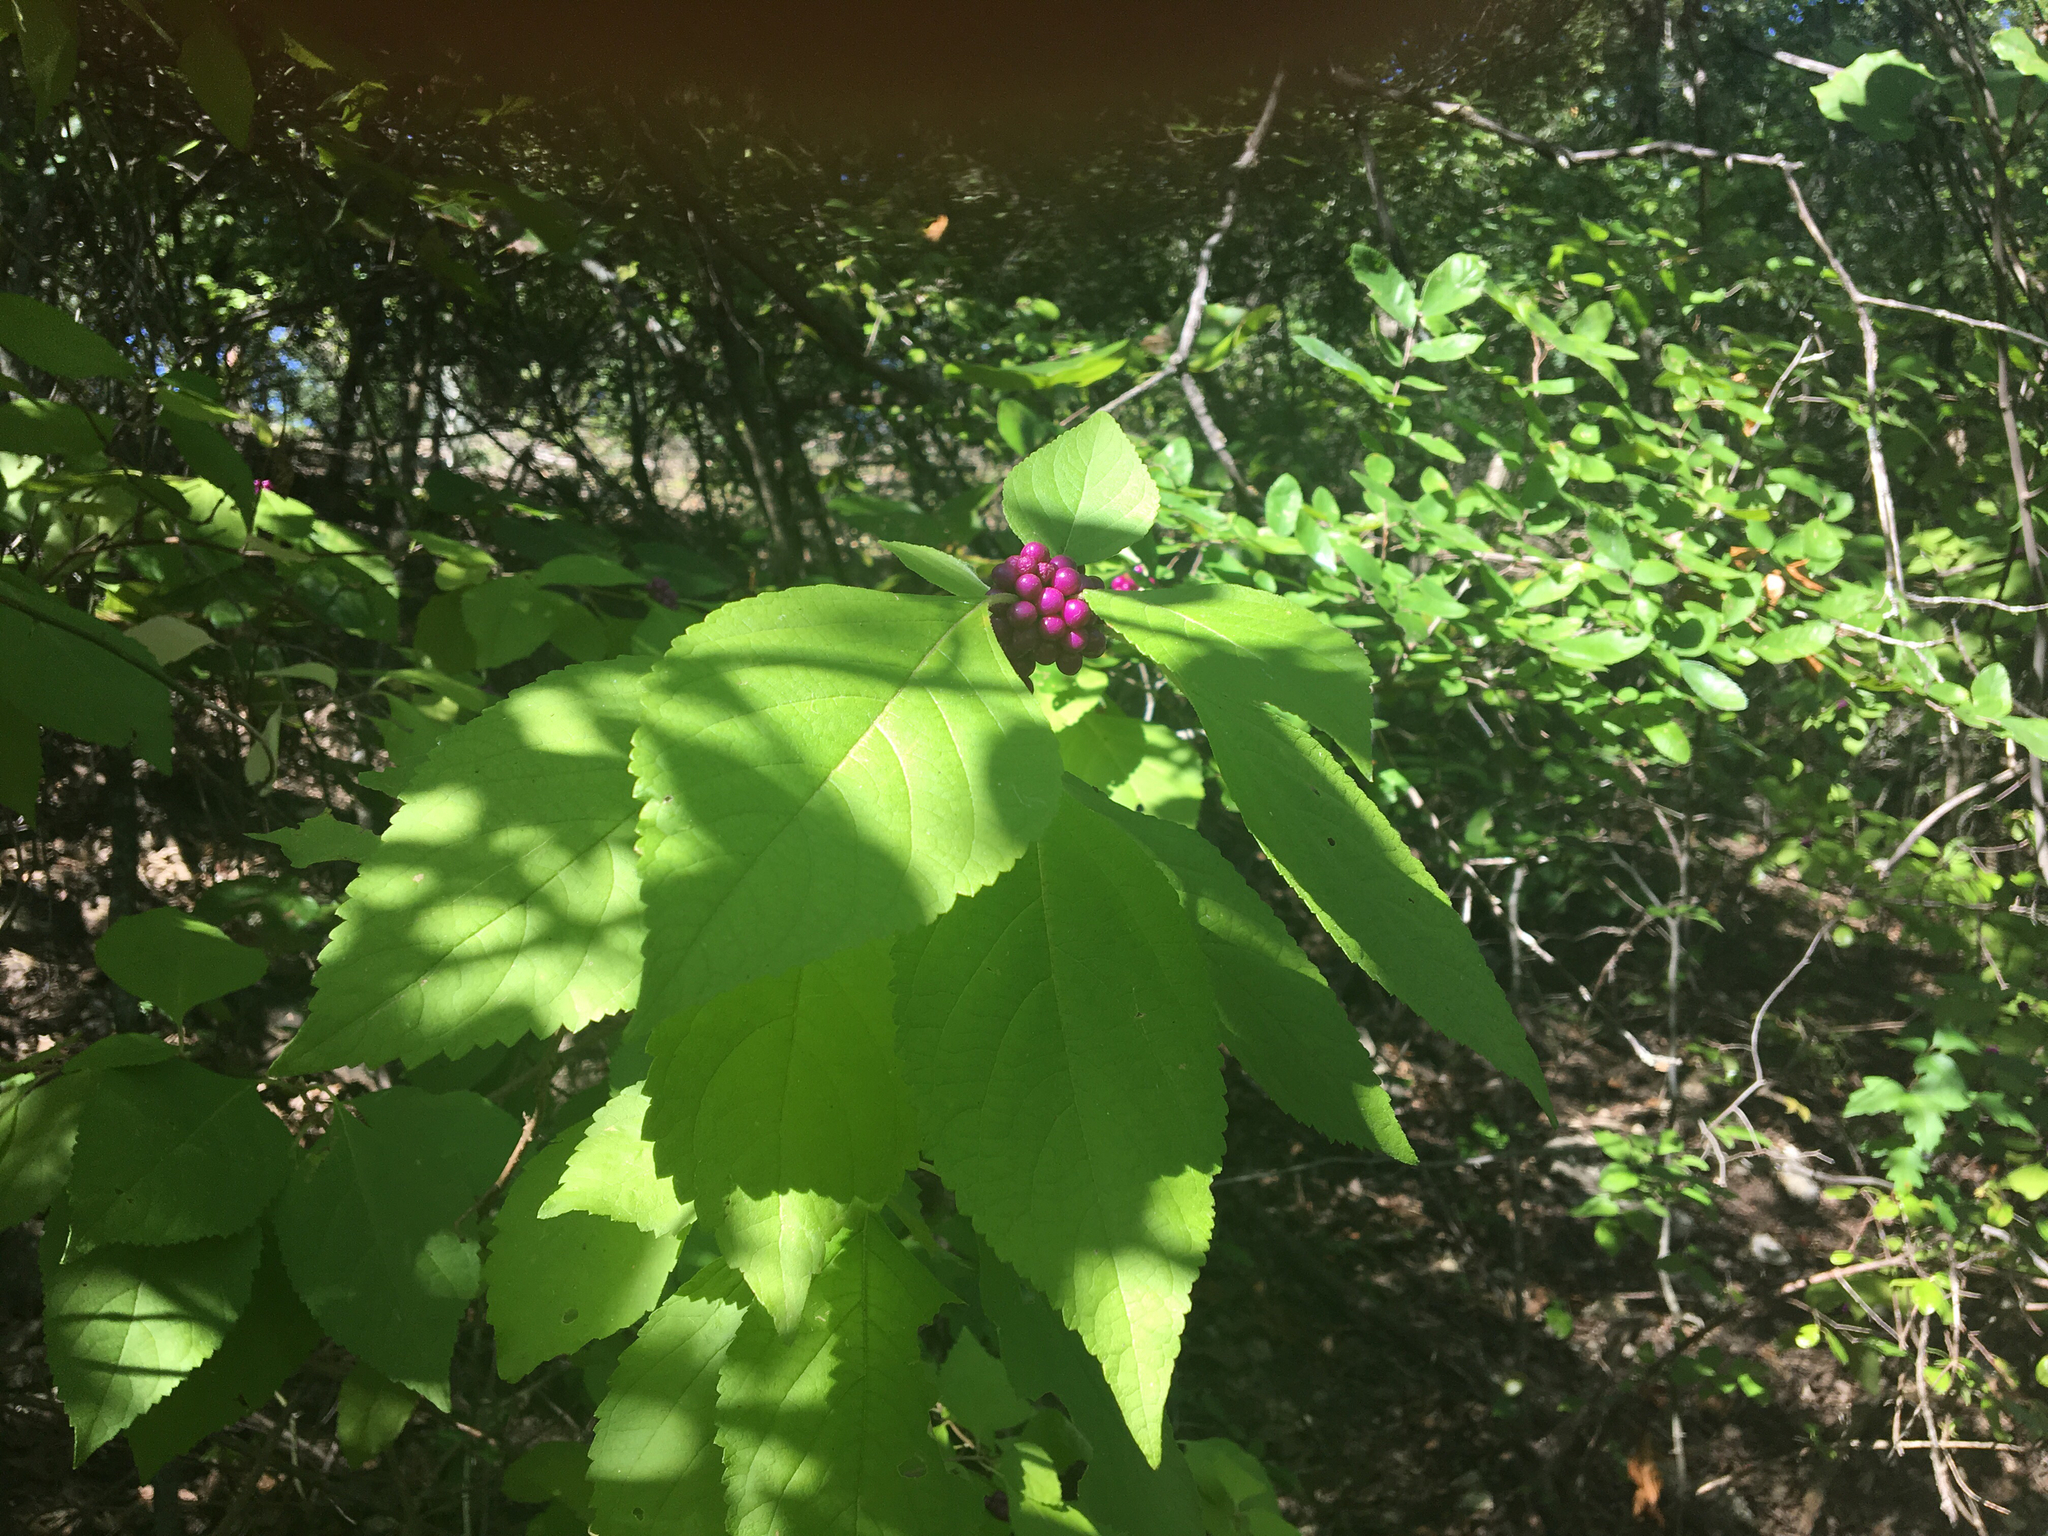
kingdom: Plantae
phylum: Tracheophyta
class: Magnoliopsida
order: Lamiales
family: Lamiaceae
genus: Callicarpa
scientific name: Callicarpa americana
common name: American beautyberry
